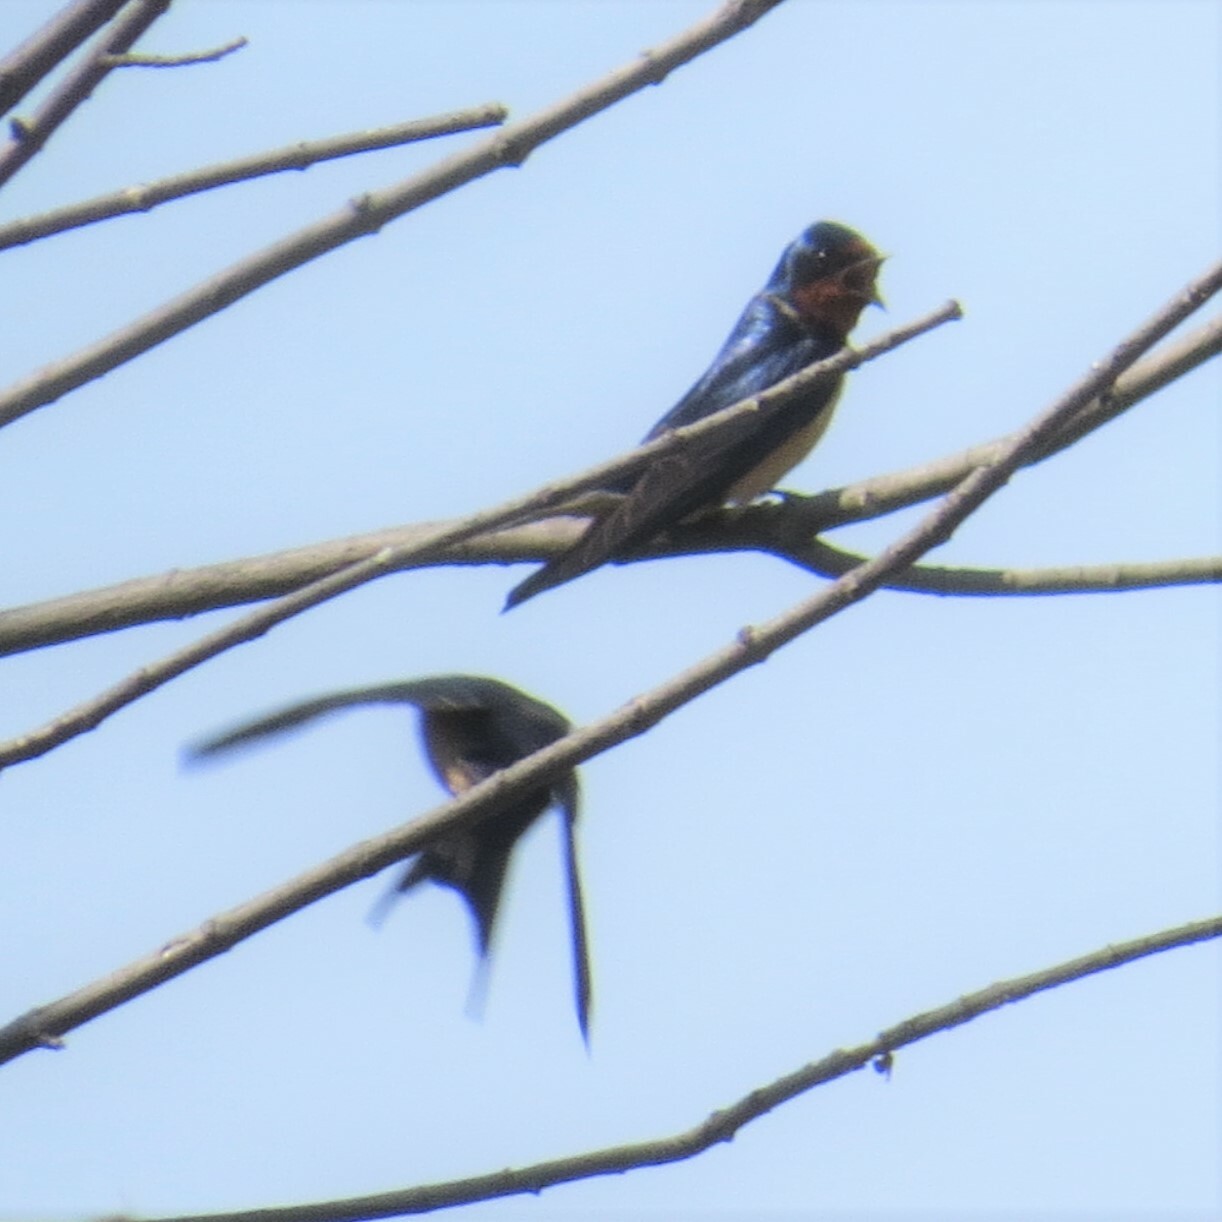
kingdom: Animalia
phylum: Chordata
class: Aves
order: Passeriformes
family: Hirundinidae
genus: Hirundo
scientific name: Hirundo rustica
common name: Barn swallow
